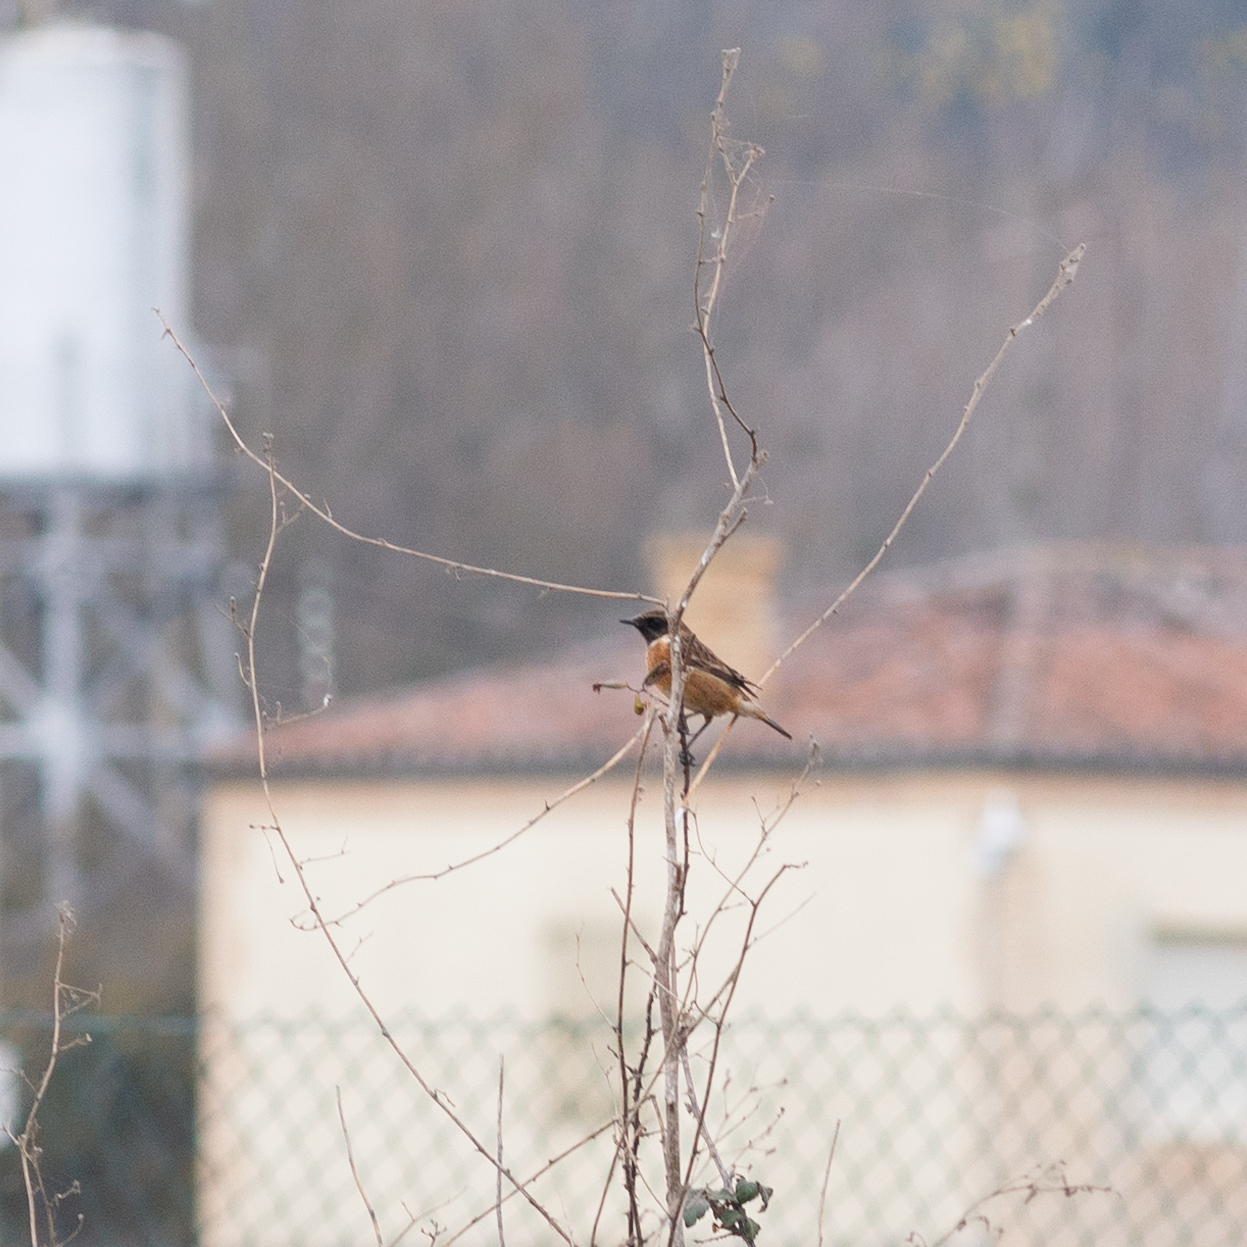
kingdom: Animalia
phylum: Chordata
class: Aves
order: Passeriformes
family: Muscicapidae
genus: Saxicola
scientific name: Saxicola rubicola
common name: European stonechat
